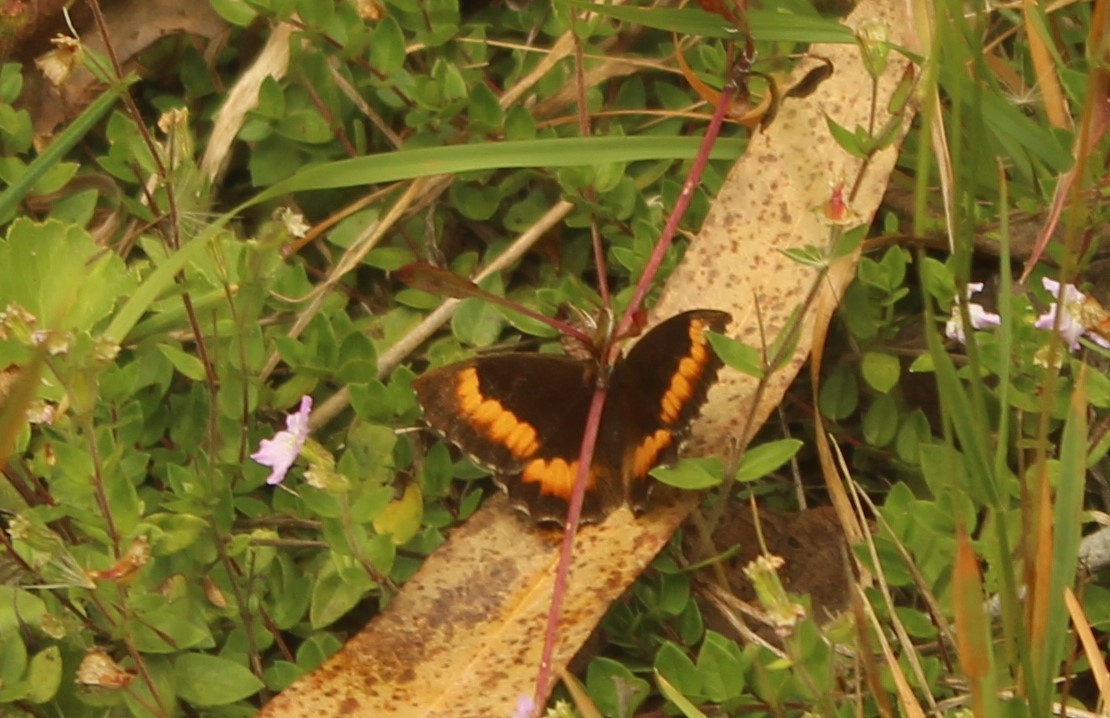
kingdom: Animalia
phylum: Arthropoda
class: Insecta
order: Lepidoptera
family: Nymphalidae
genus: Pedaliodes
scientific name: Pedaliodes phaea
